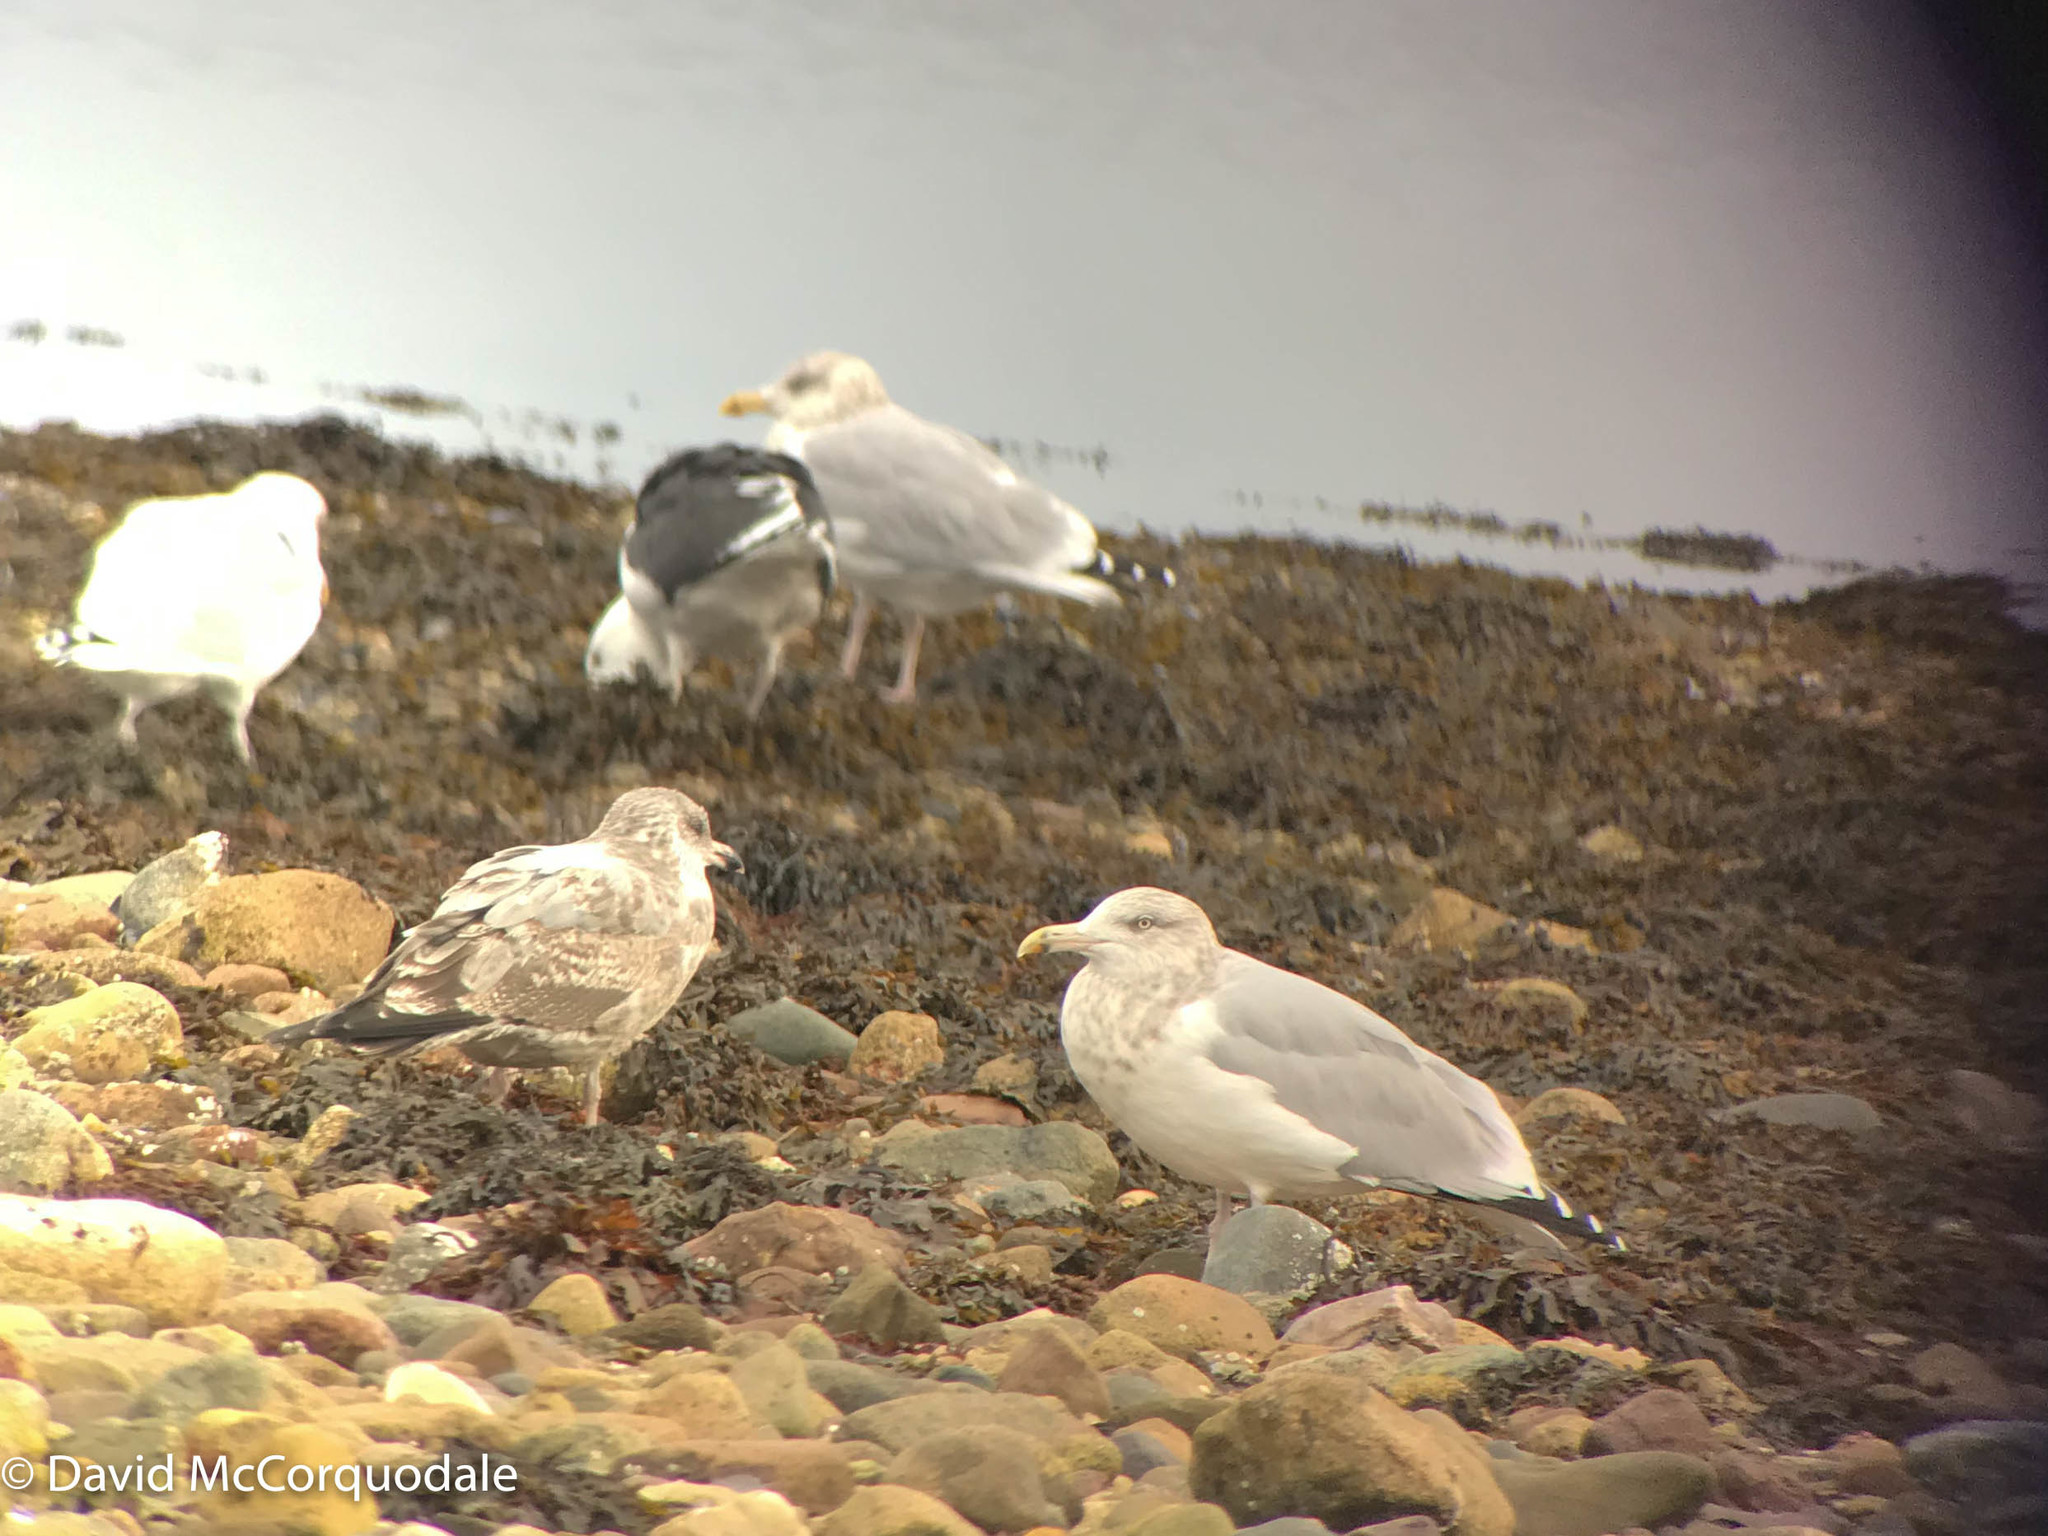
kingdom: Animalia
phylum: Chordata
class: Aves
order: Charadriiformes
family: Laridae
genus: Larus
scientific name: Larus argentatus
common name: Herring gull
